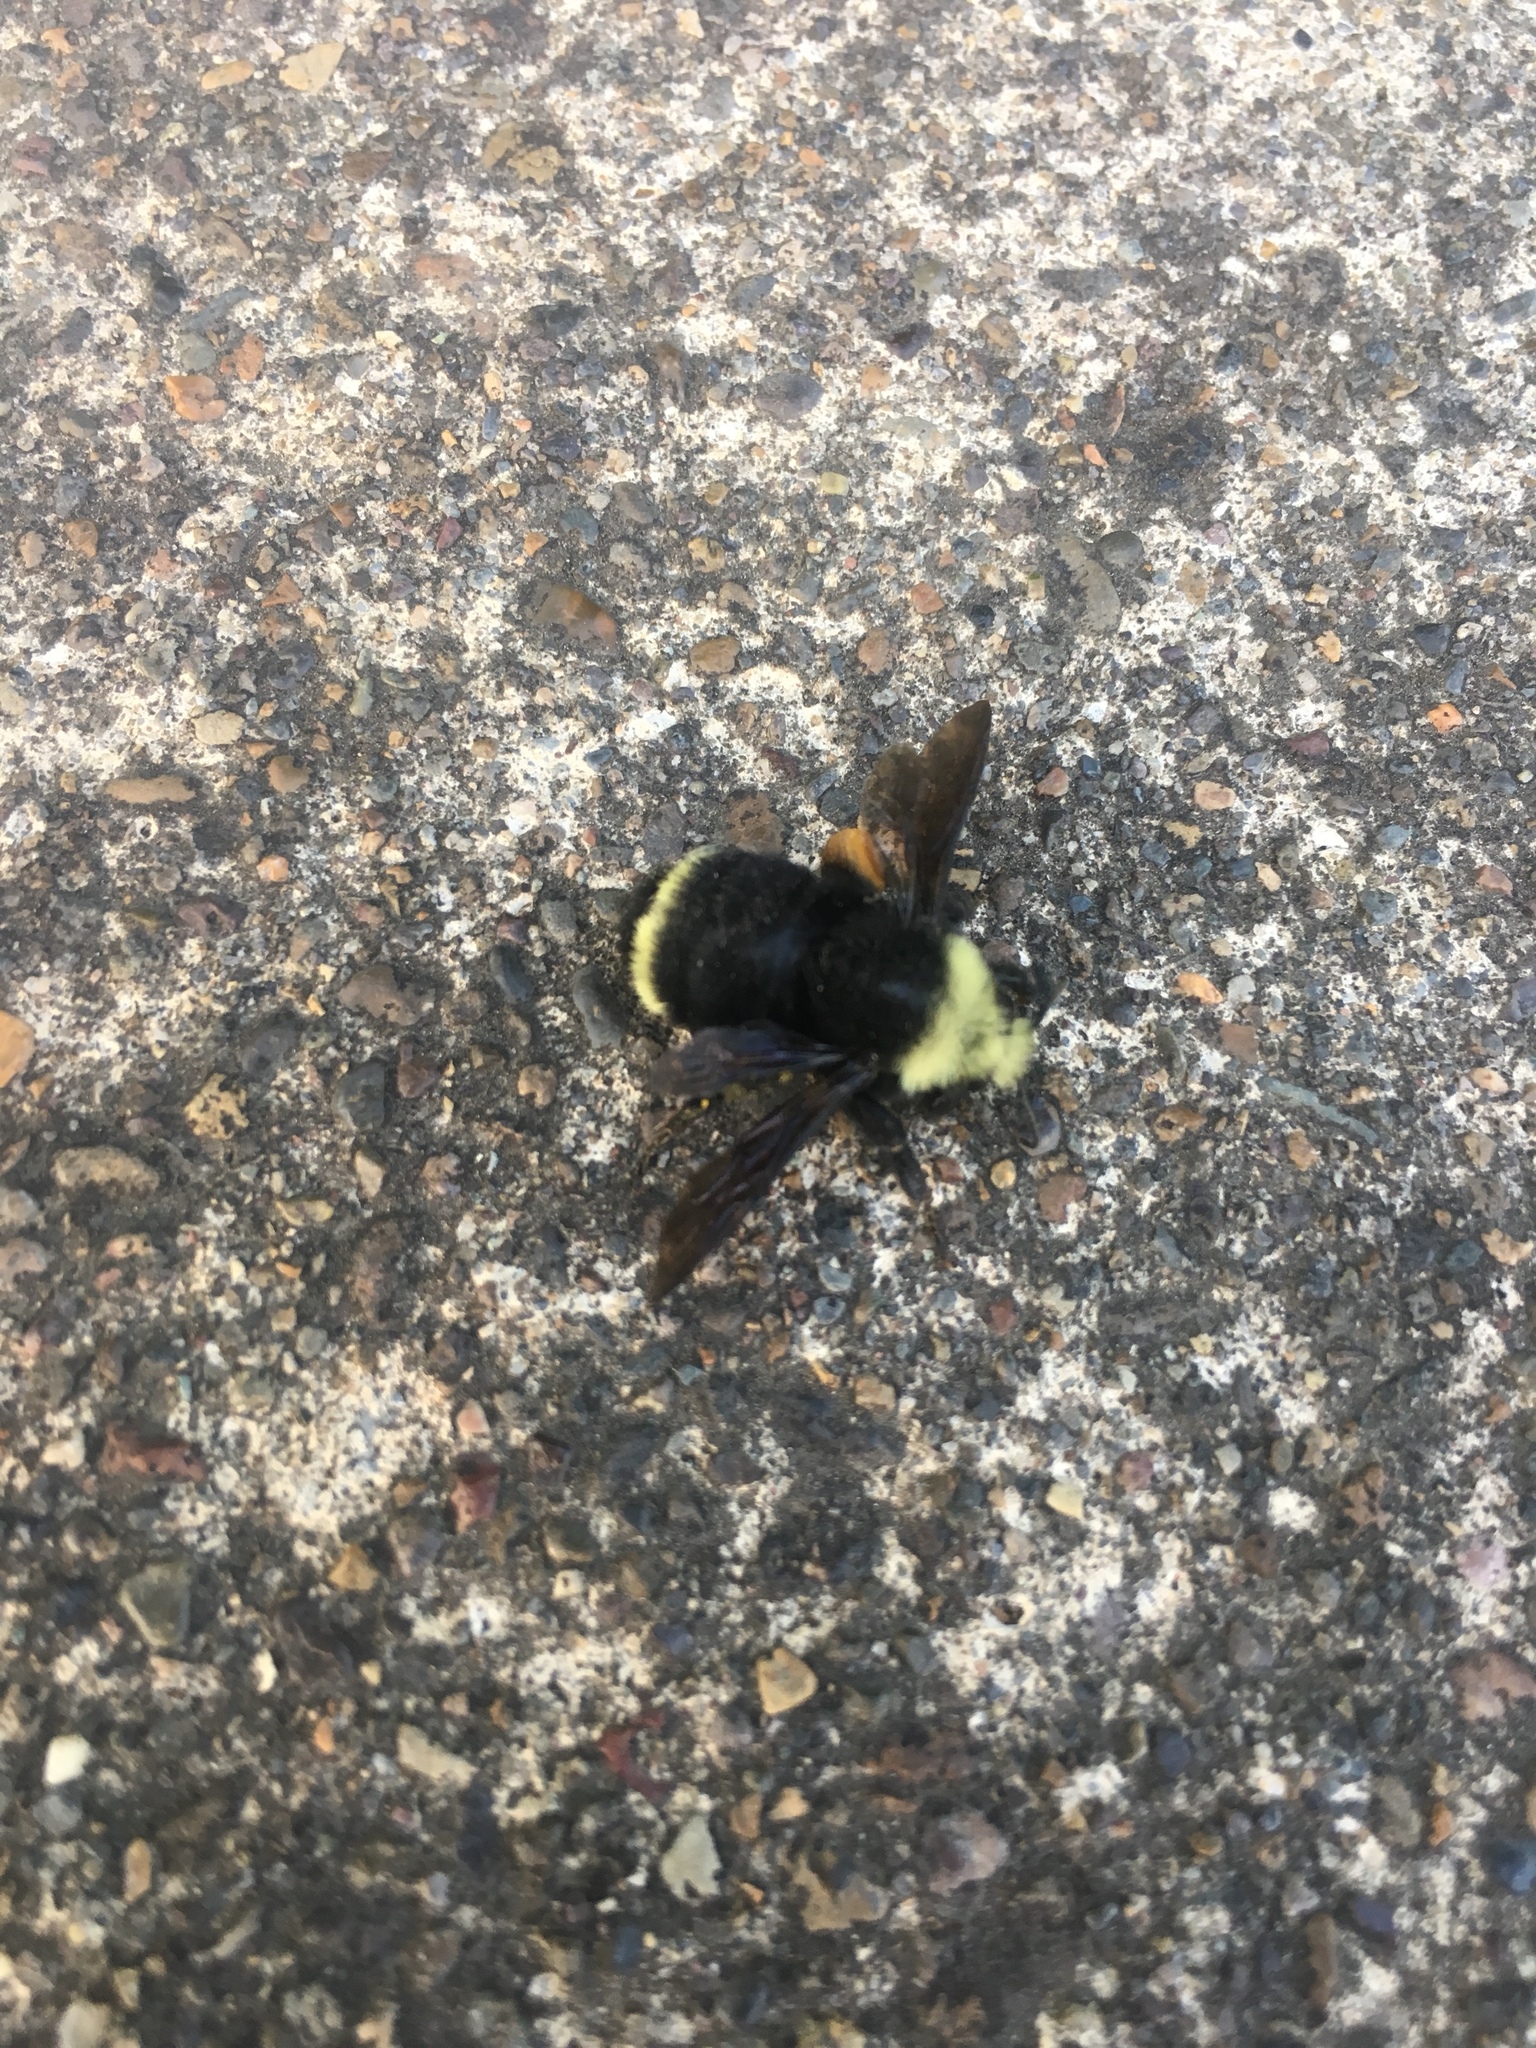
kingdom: Animalia
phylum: Arthropoda
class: Insecta
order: Hymenoptera
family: Apidae
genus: Bombus
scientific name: Bombus vosnesenskii
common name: Vosnesensky bumble bee
